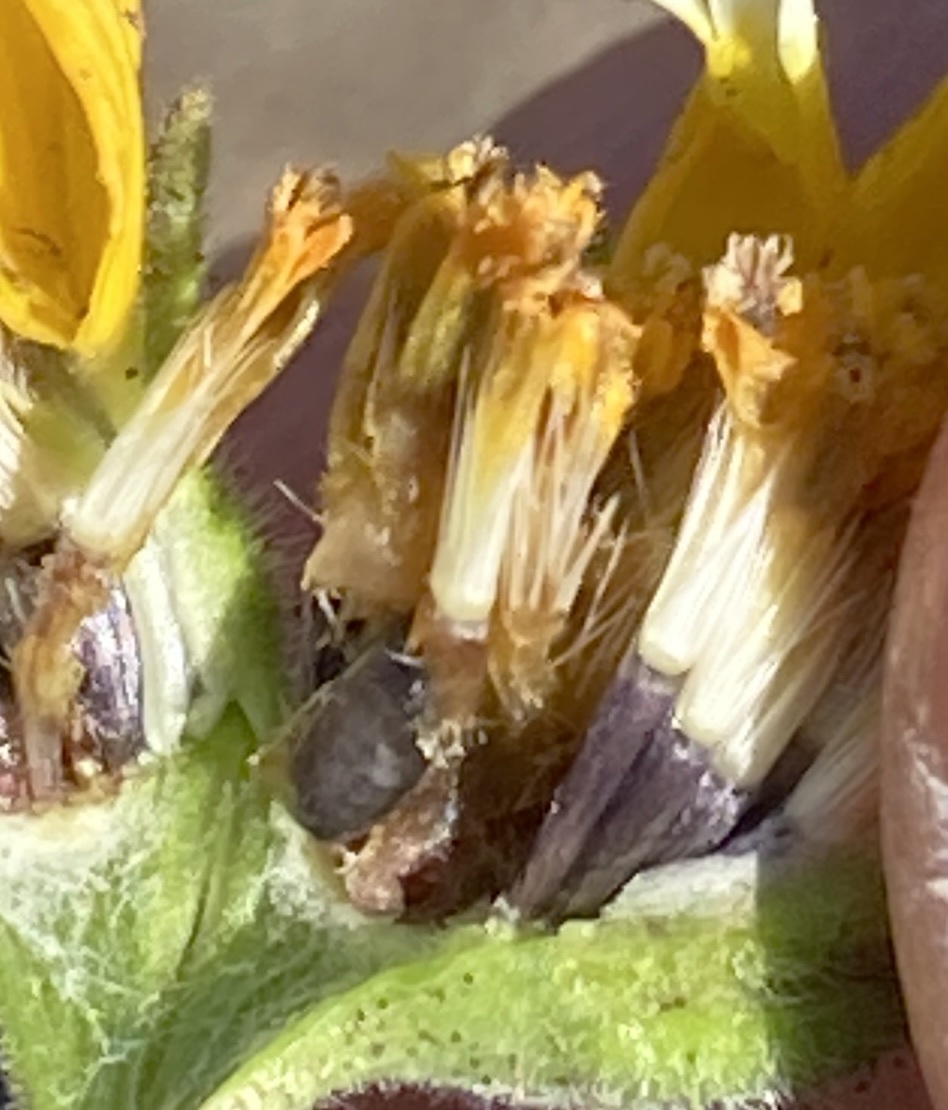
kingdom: Plantae
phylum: Tracheophyta
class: Magnoliopsida
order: Asterales
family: Asteraceae
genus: Layia
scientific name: Layia platyglossa
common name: Tidy-tips
